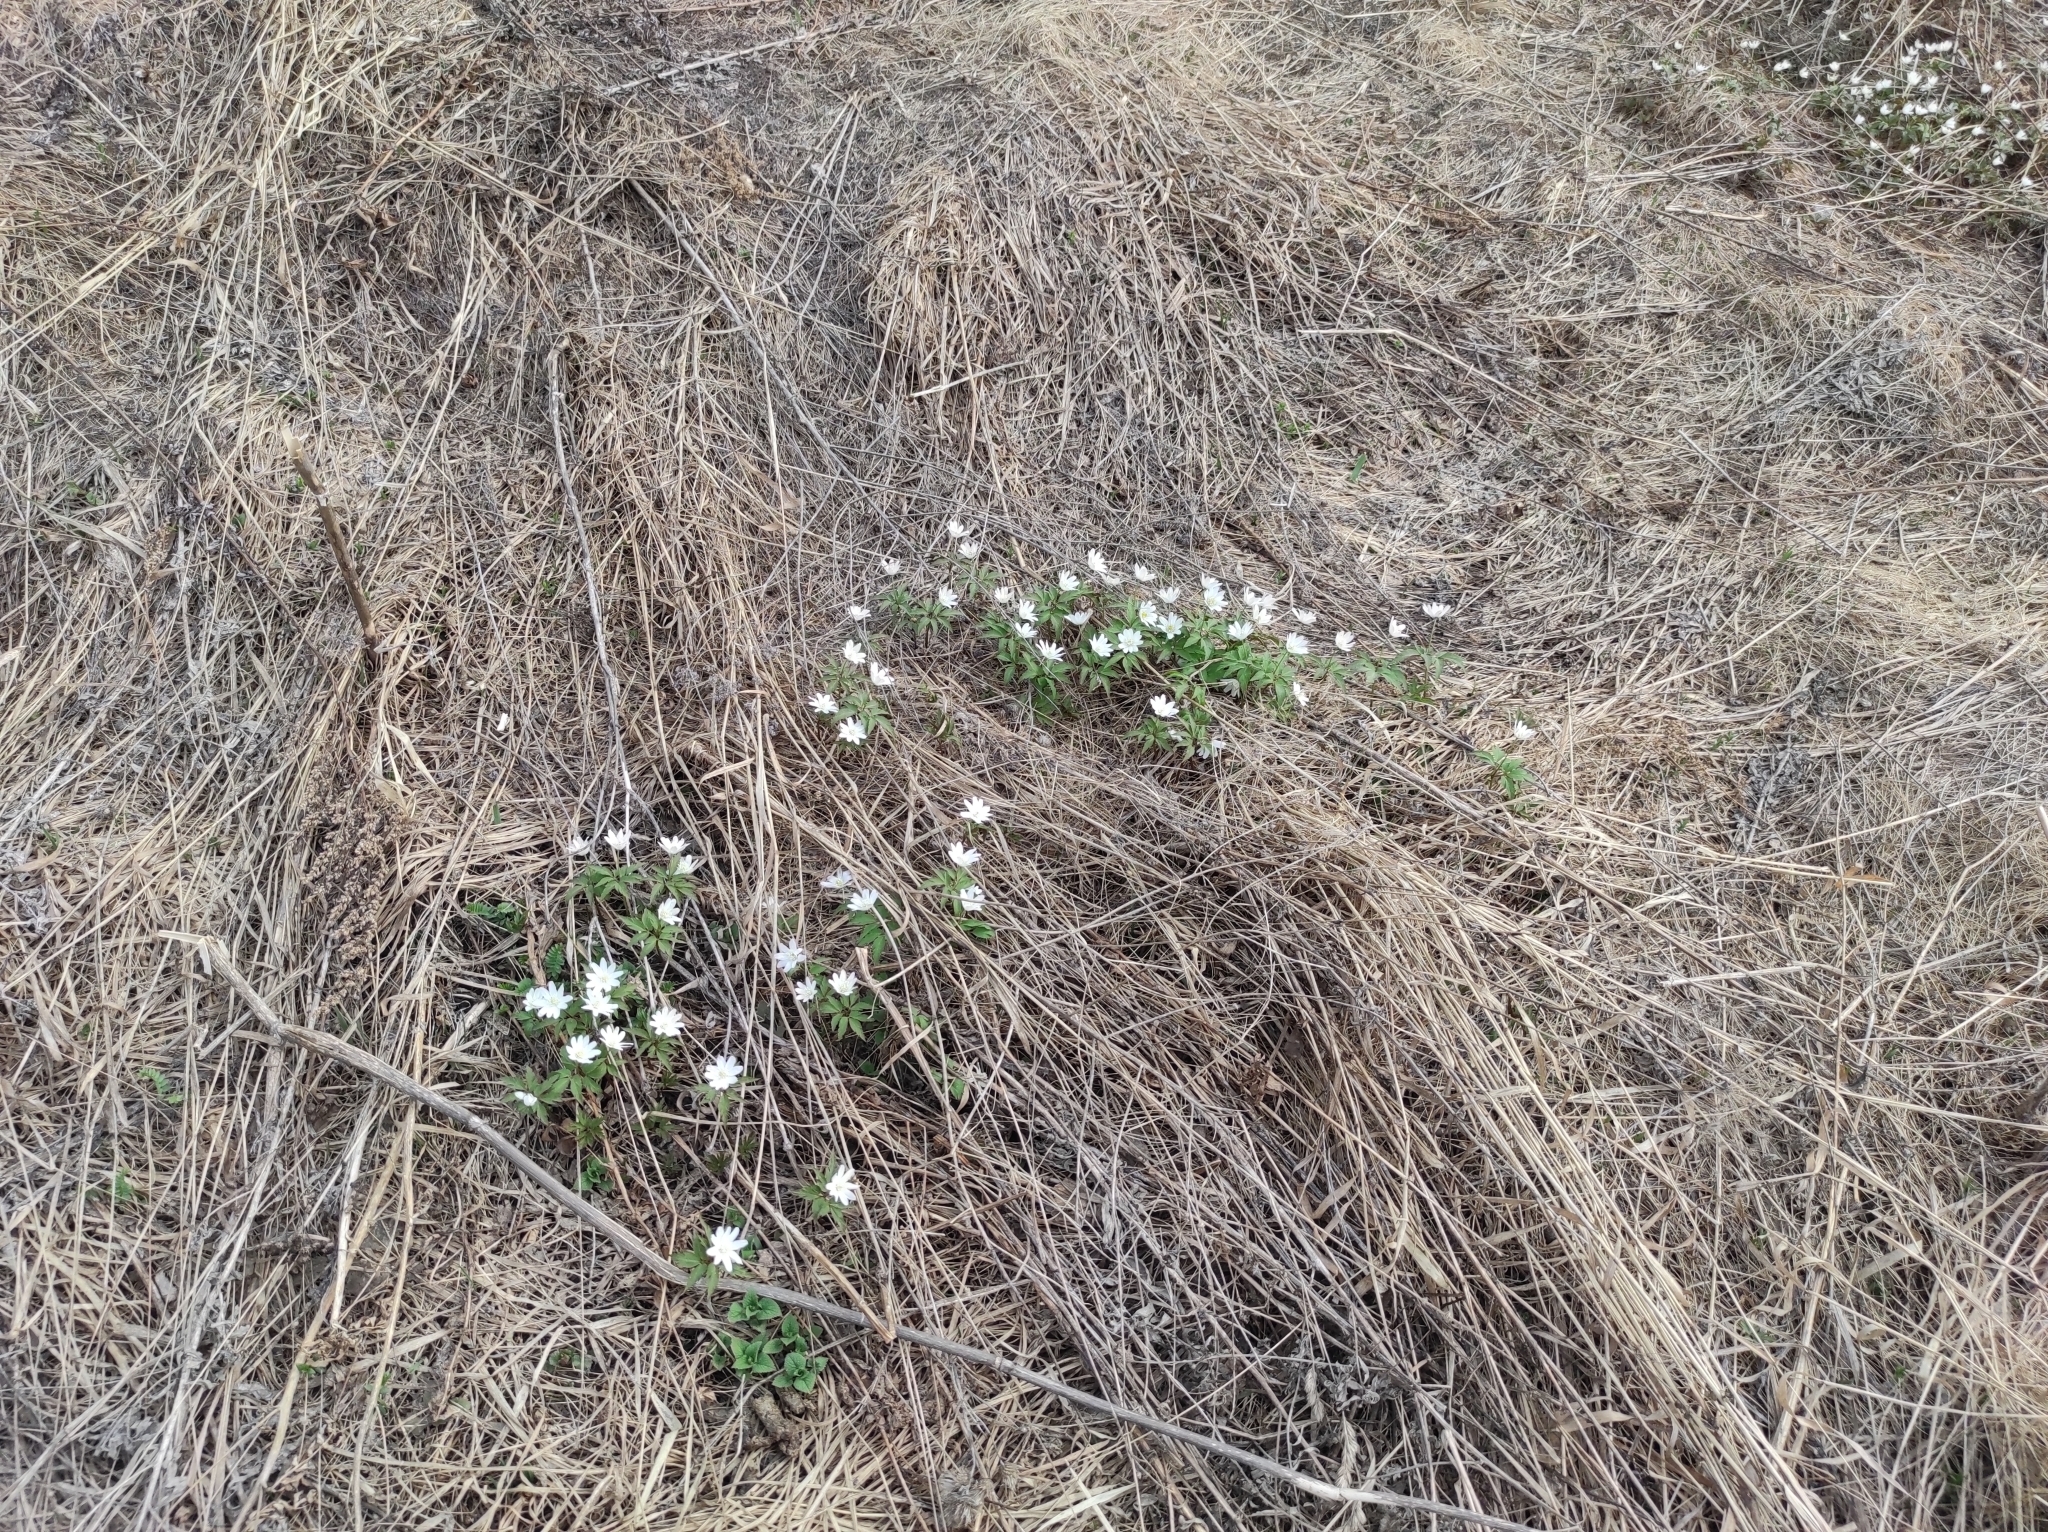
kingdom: Plantae
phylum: Tracheophyta
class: Magnoliopsida
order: Ranunculales
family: Ranunculaceae
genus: Anemone
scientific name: Anemone altaica
